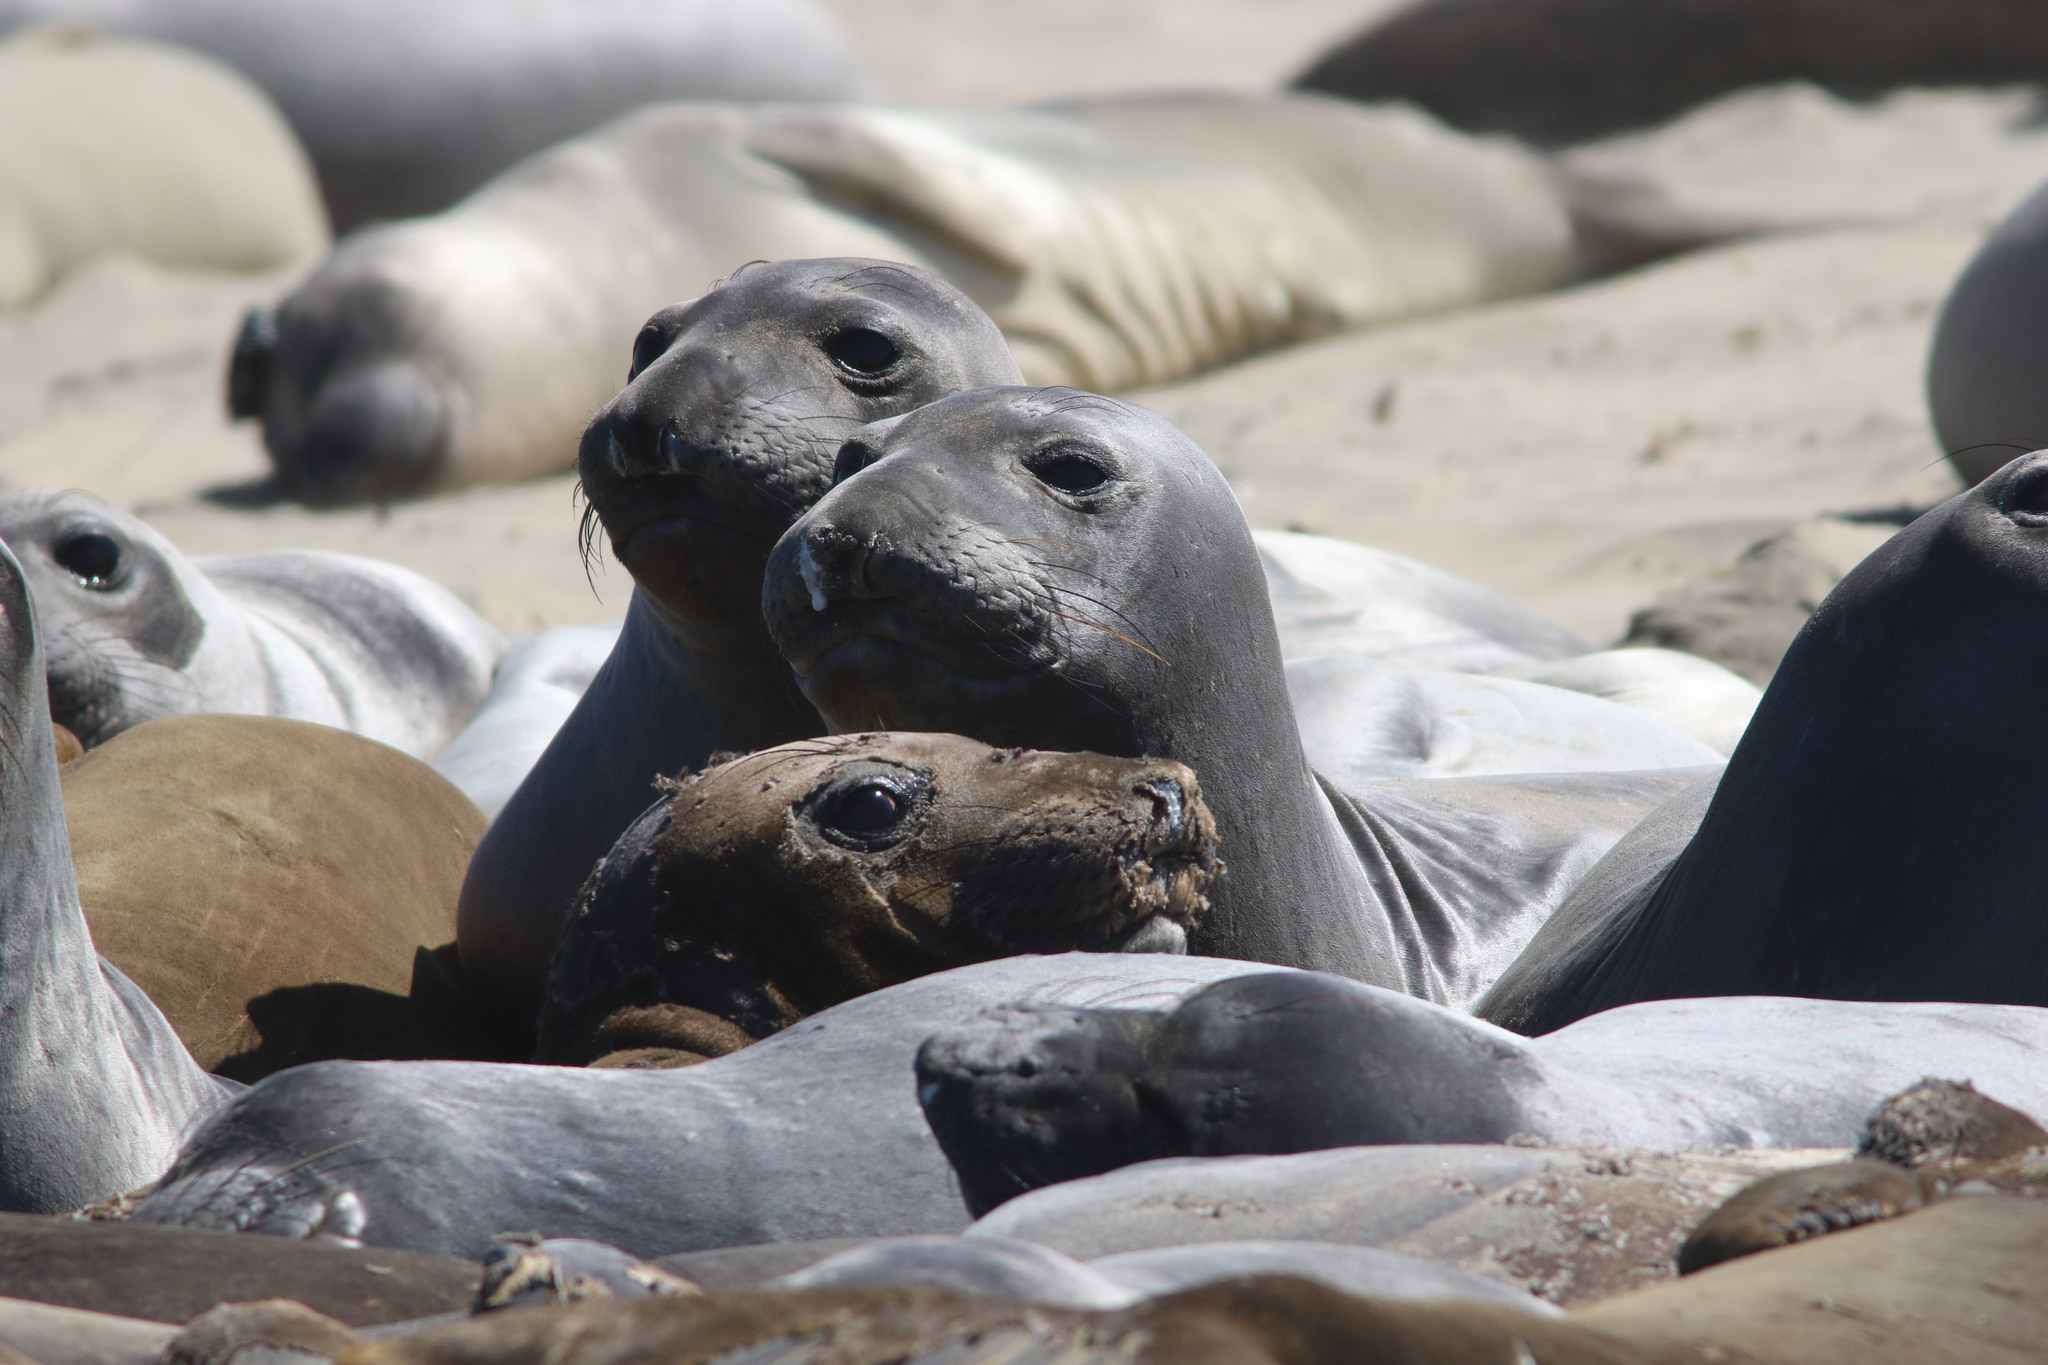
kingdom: Animalia
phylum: Chordata
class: Mammalia
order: Carnivora
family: Phocidae
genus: Mirounga
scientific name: Mirounga angustirostris
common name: Northern elephant seal
